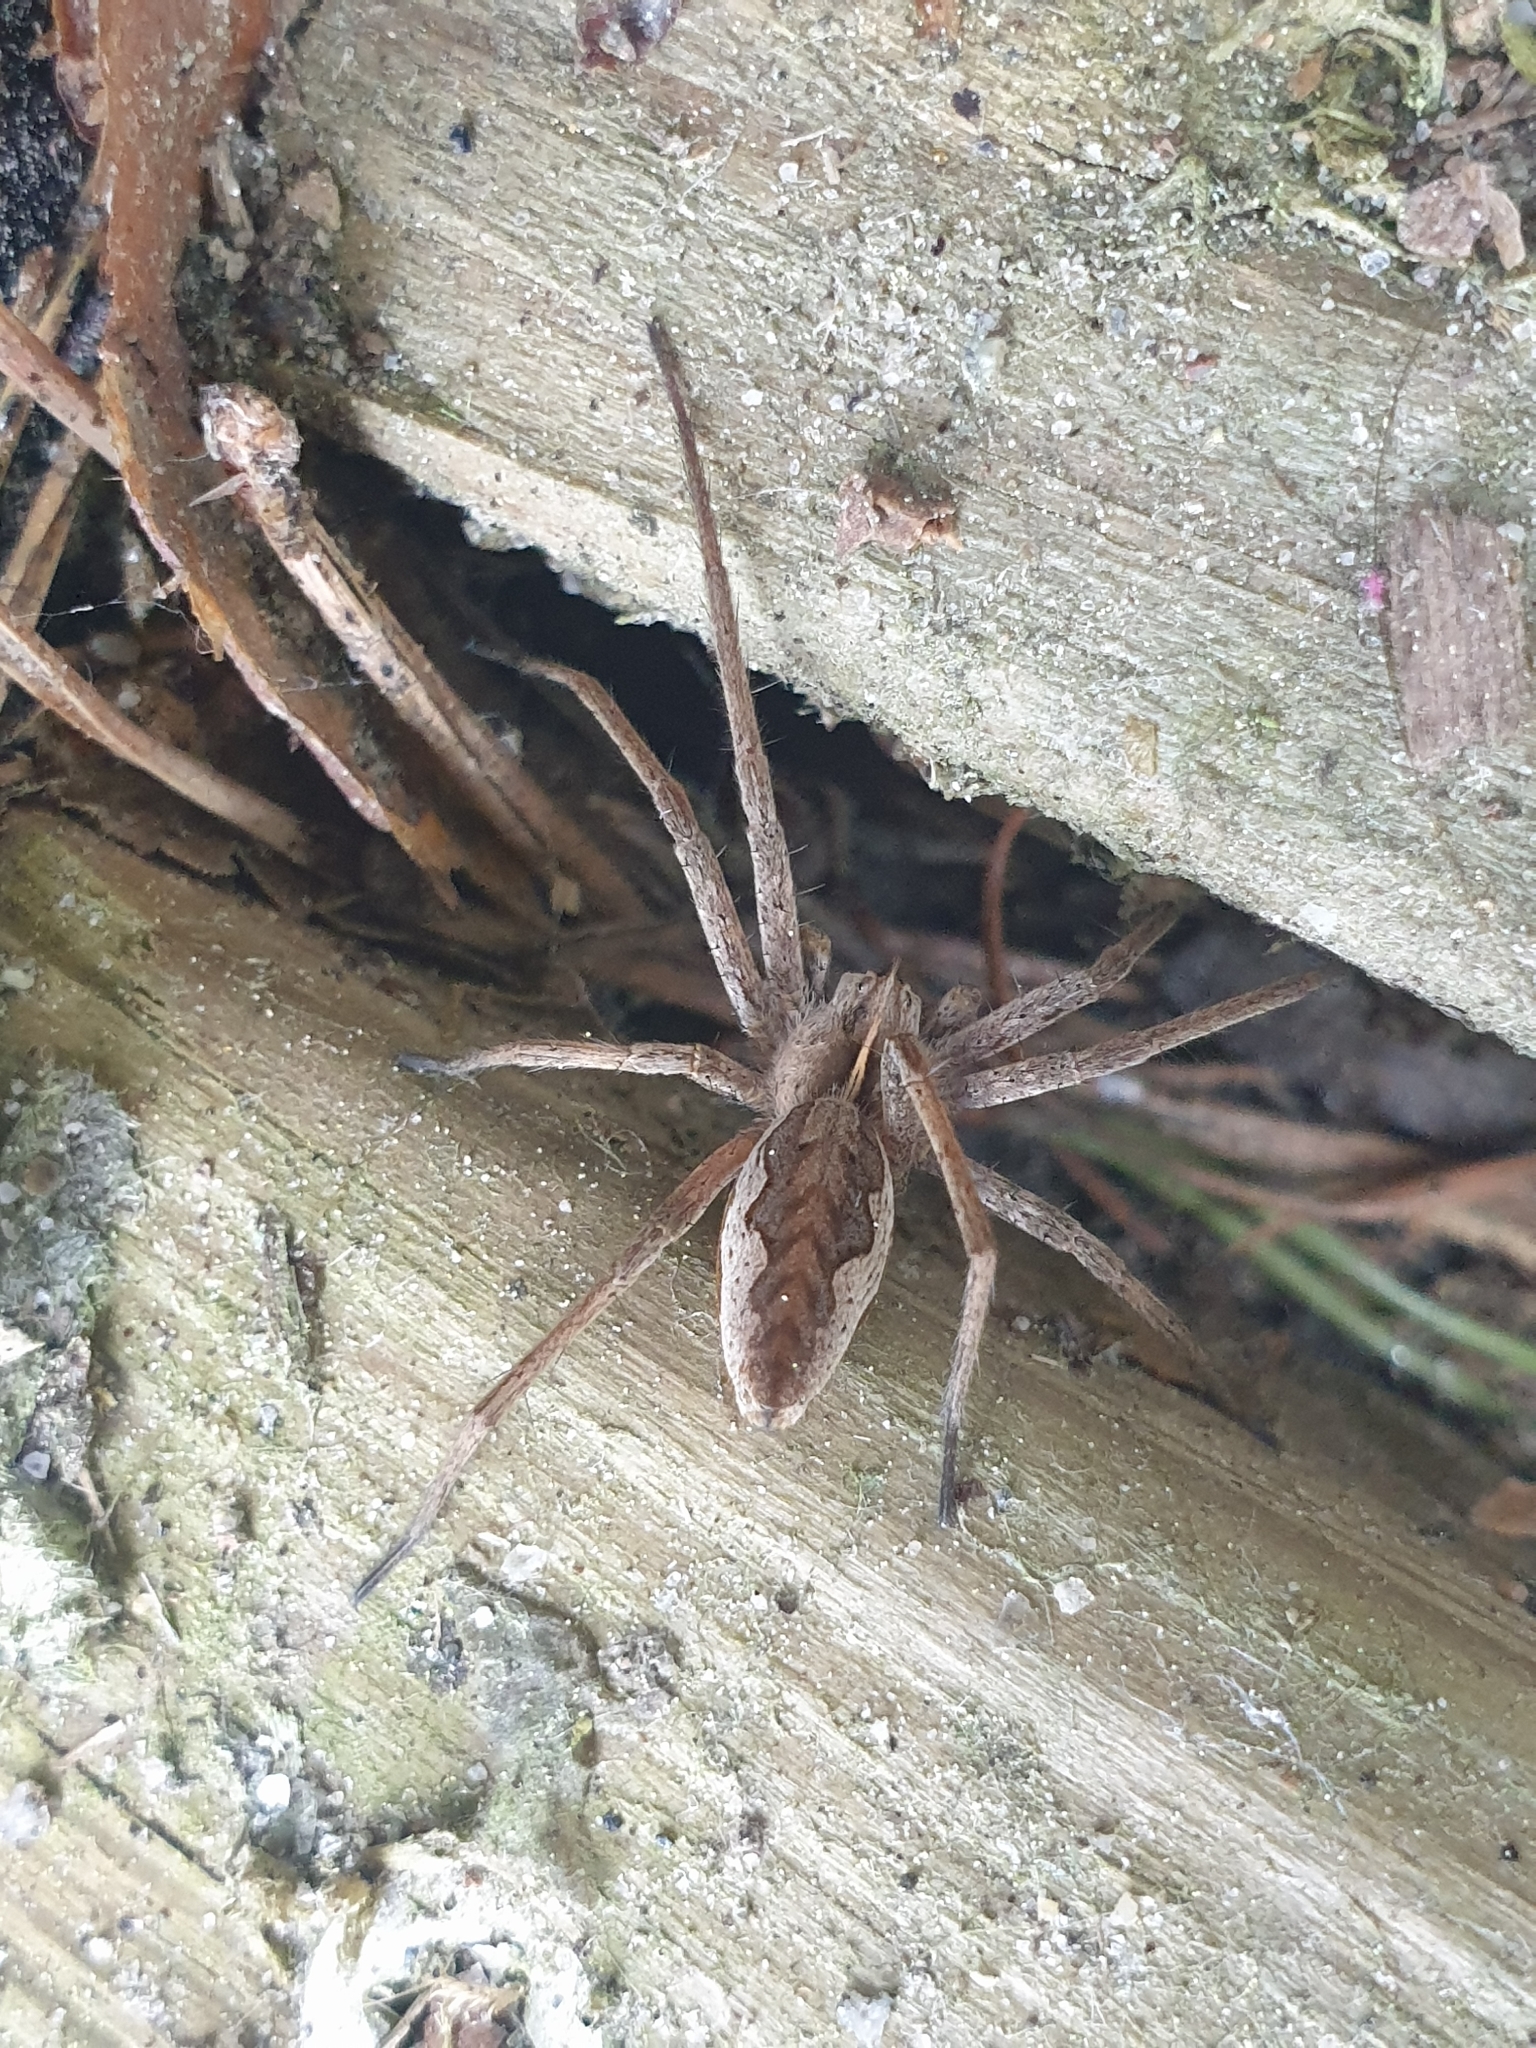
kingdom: Animalia
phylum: Arthropoda
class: Arachnida
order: Araneae
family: Pisauridae
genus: Pisaura
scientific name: Pisaura mirabilis
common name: Tent spider
